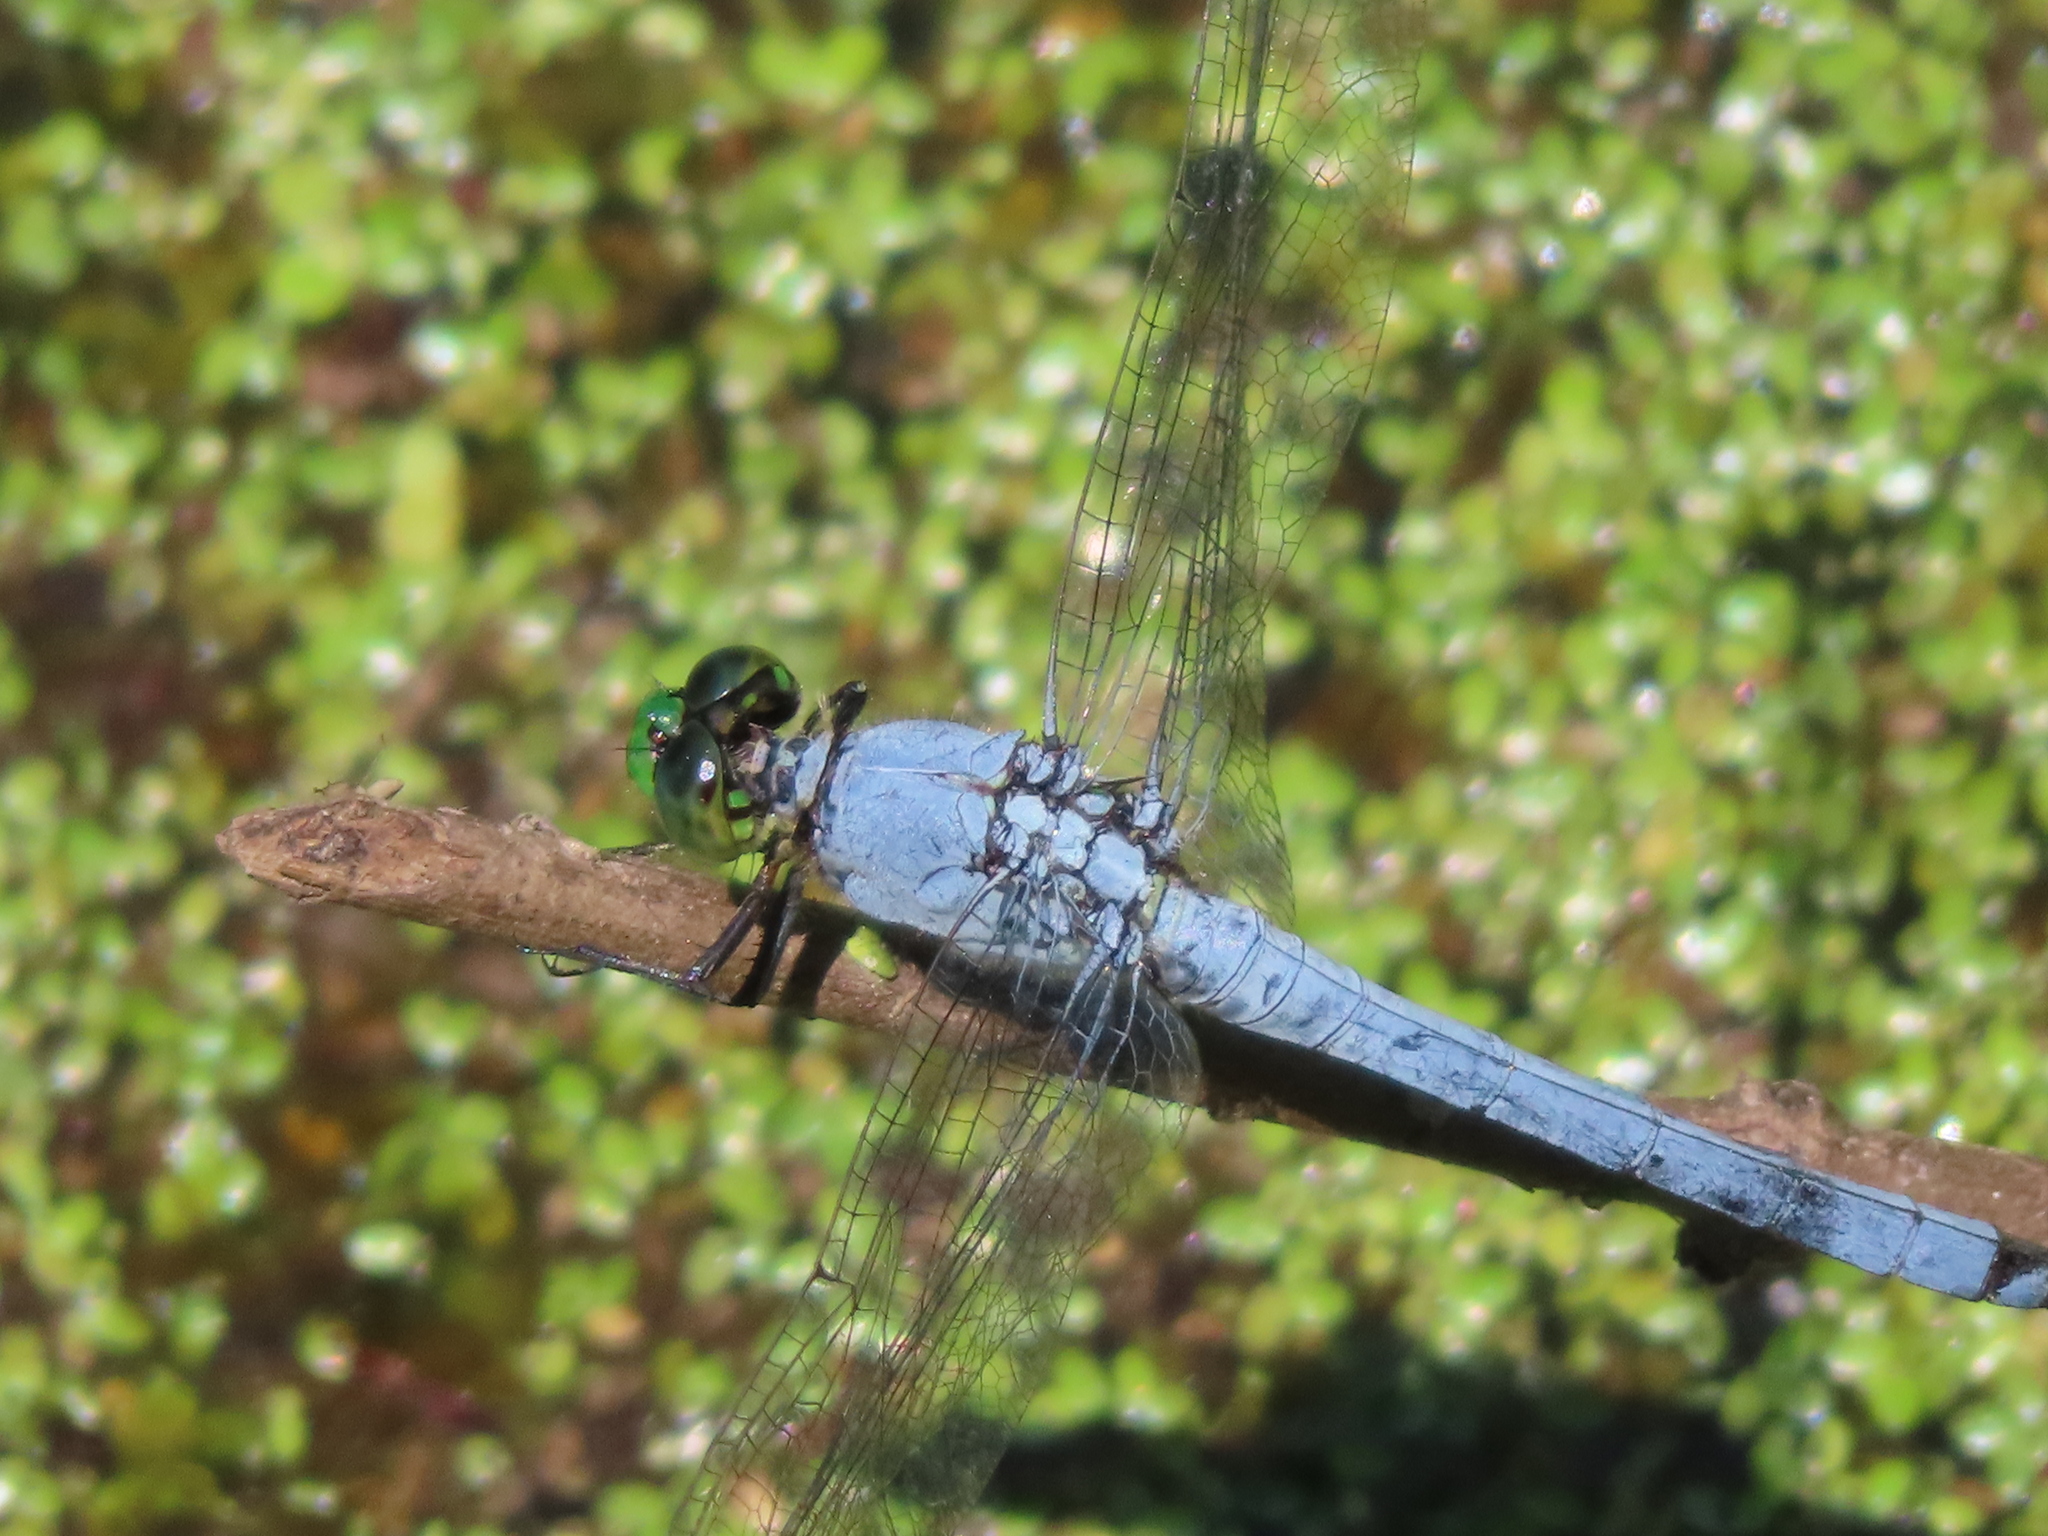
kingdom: Animalia
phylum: Arthropoda
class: Insecta
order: Odonata
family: Libellulidae
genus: Erythemis
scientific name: Erythemis simplicicollis
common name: Eastern pondhawk
